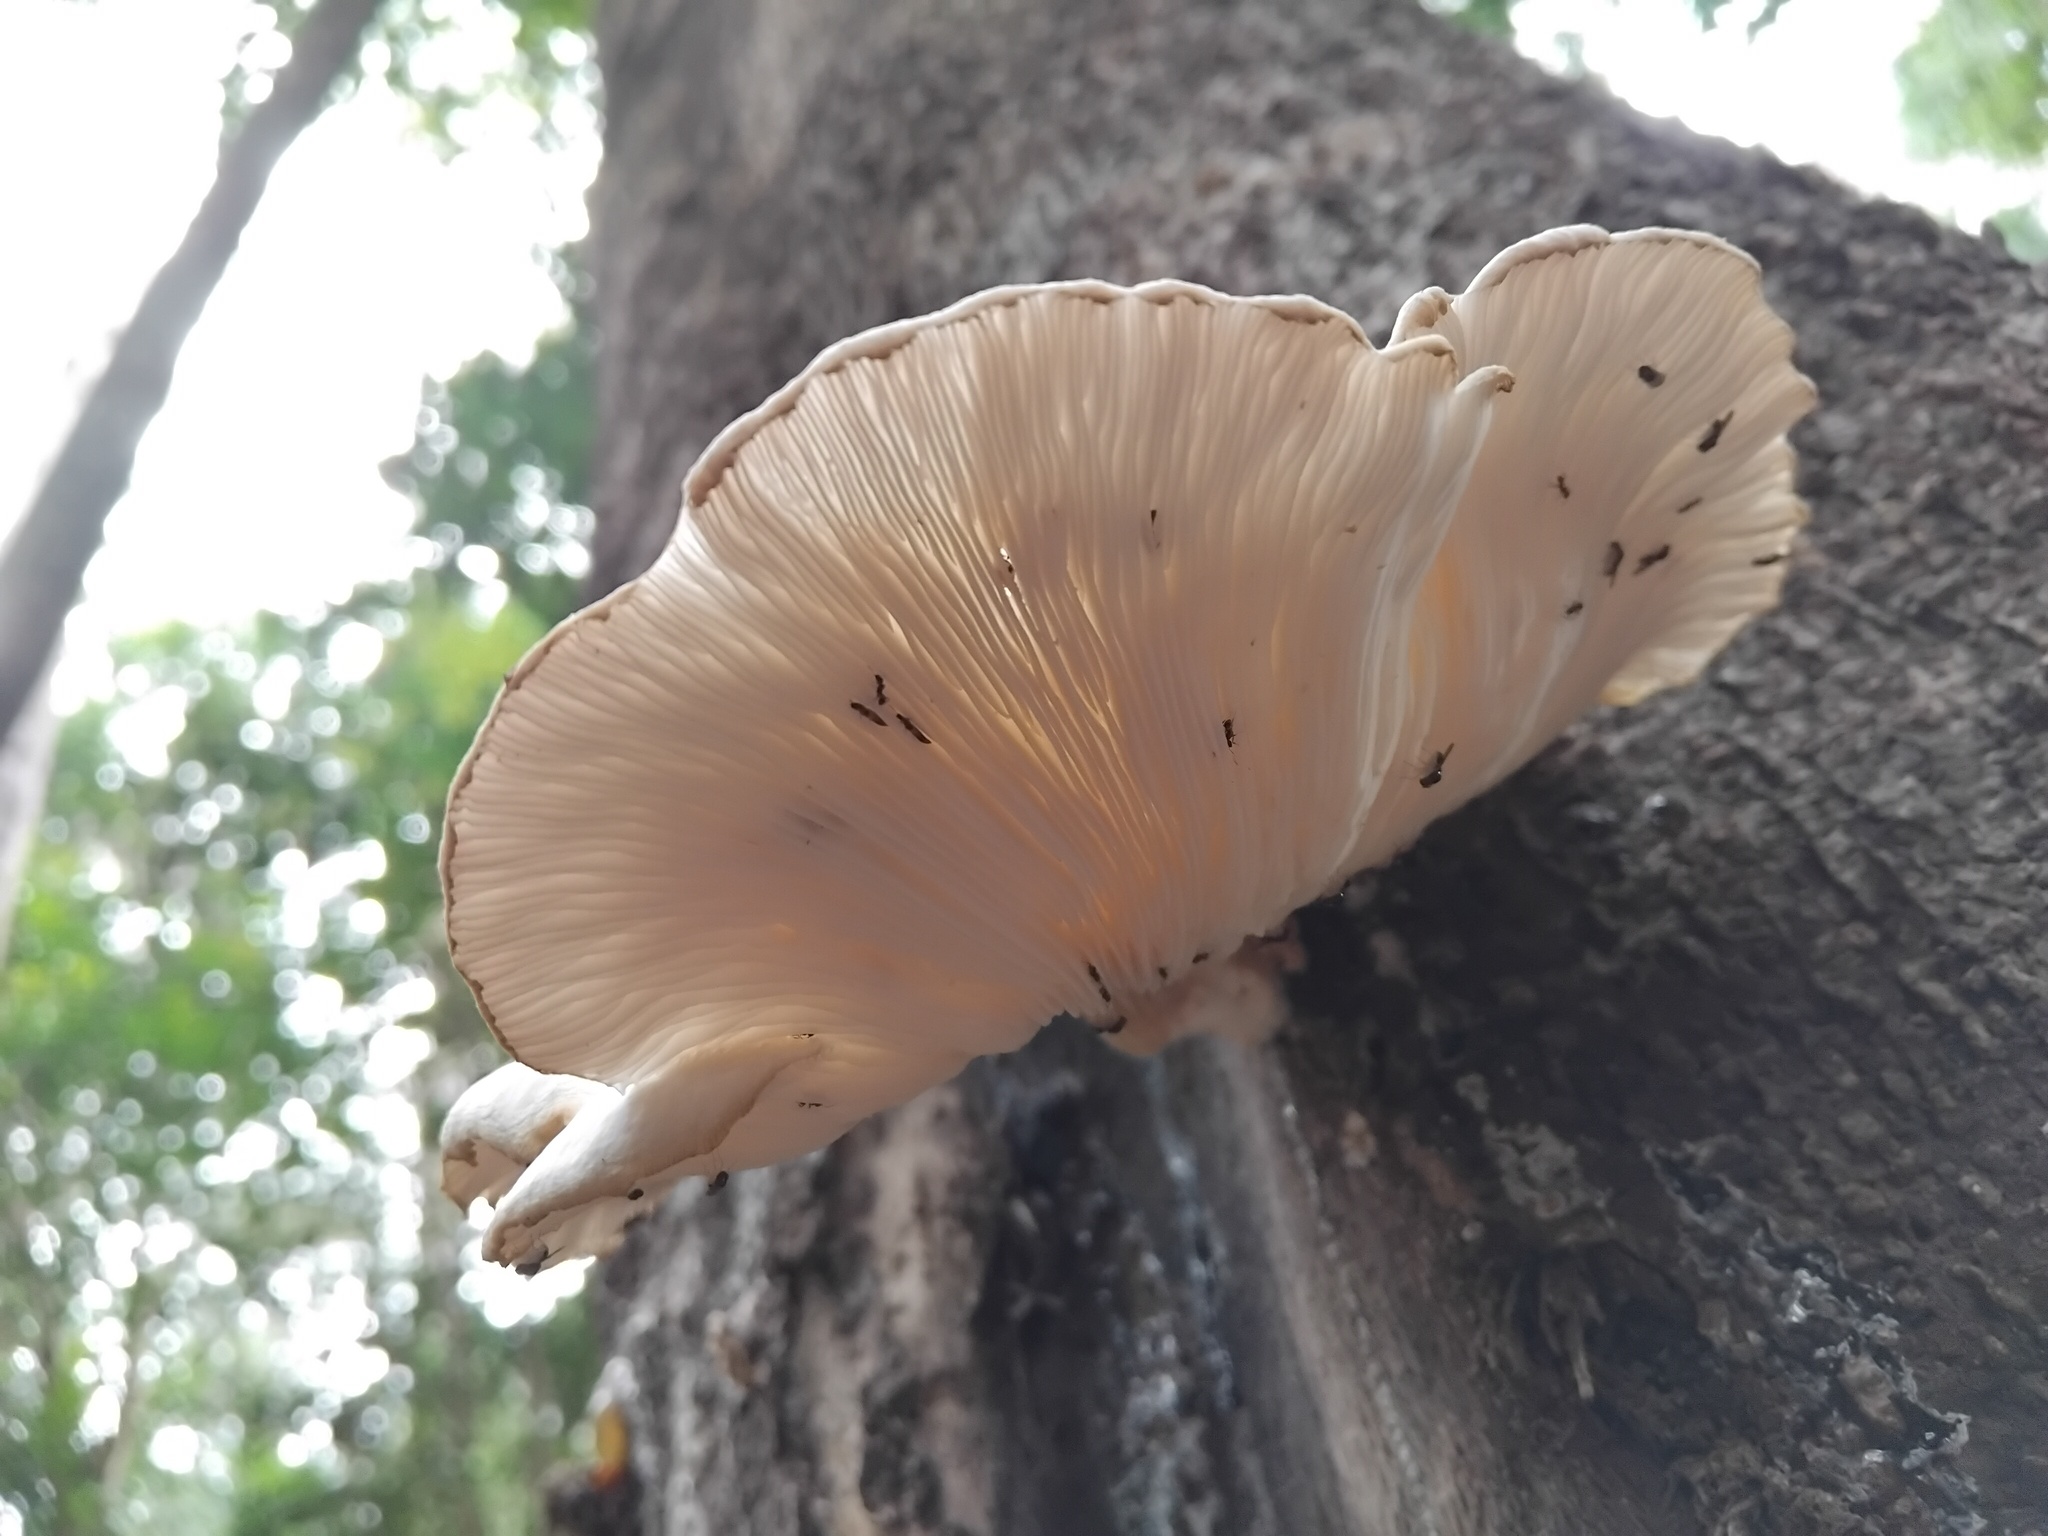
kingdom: Fungi
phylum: Basidiomycota
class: Agaricomycetes
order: Agaricales
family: Omphalotaceae
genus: Omphalotus
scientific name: Omphalotus nidiformis
